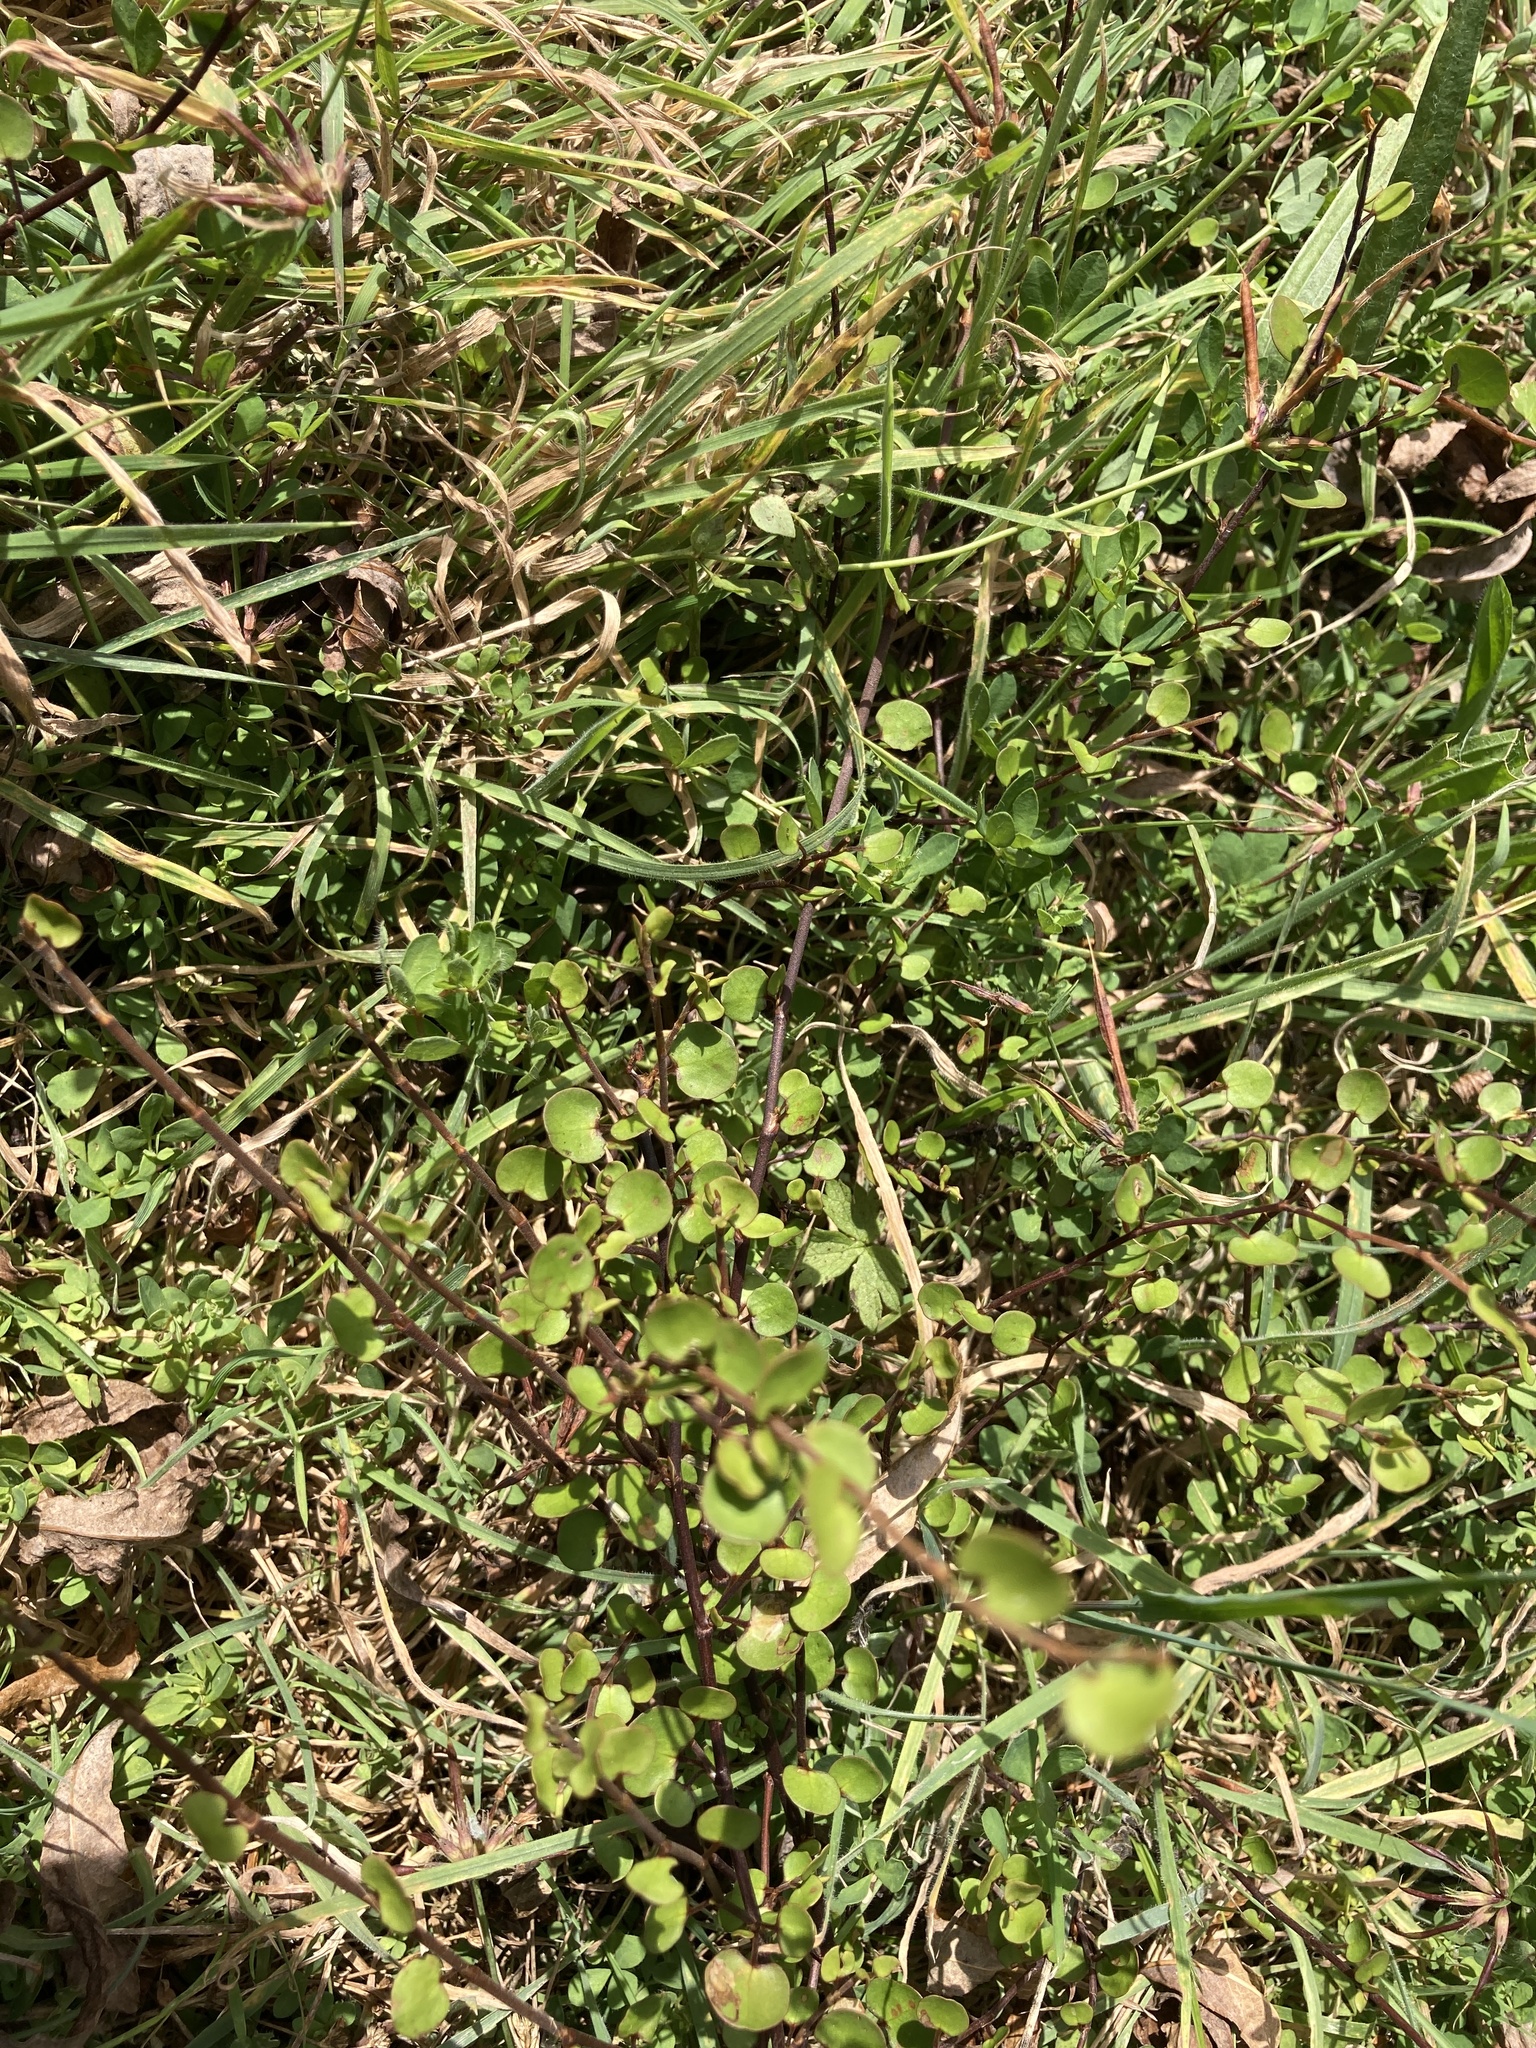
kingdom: Plantae
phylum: Tracheophyta
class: Magnoliopsida
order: Caryophyllales
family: Polygonaceae
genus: Muehlenbeckia
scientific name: Muehlenbeckia complexa
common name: Wireplant
